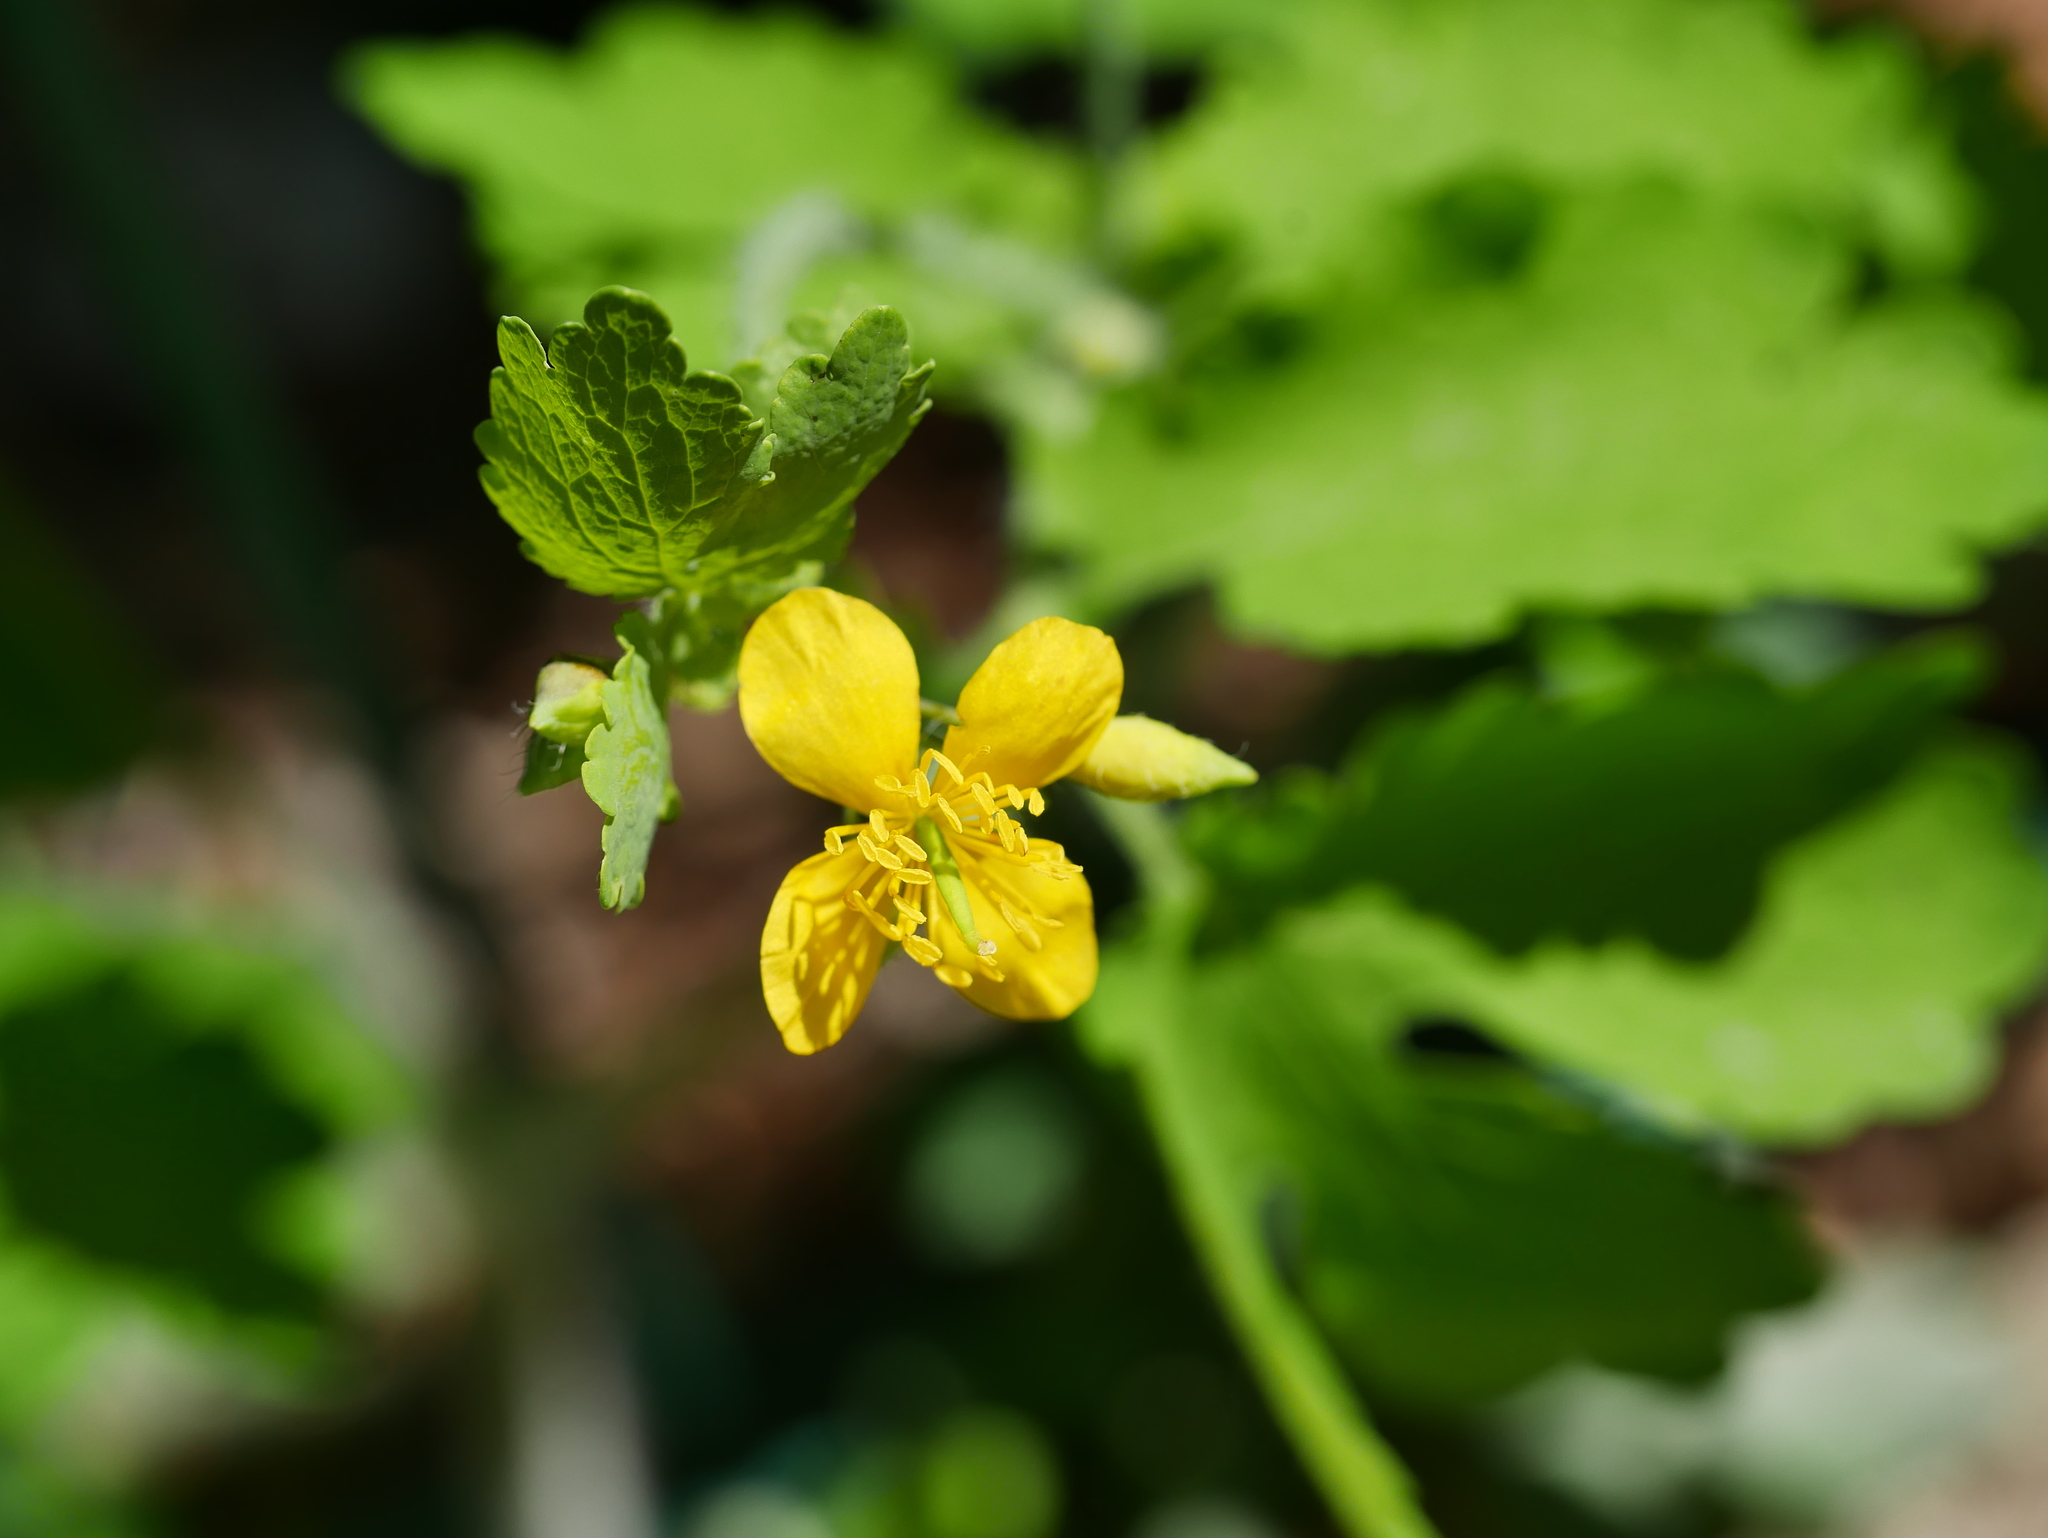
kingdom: Plantae
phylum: Tracheophyta
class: Magnoliopsida
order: Ranunculales
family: Papaveraceae
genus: Chelidonium
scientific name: Chelidonium majus
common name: Greater celandine
